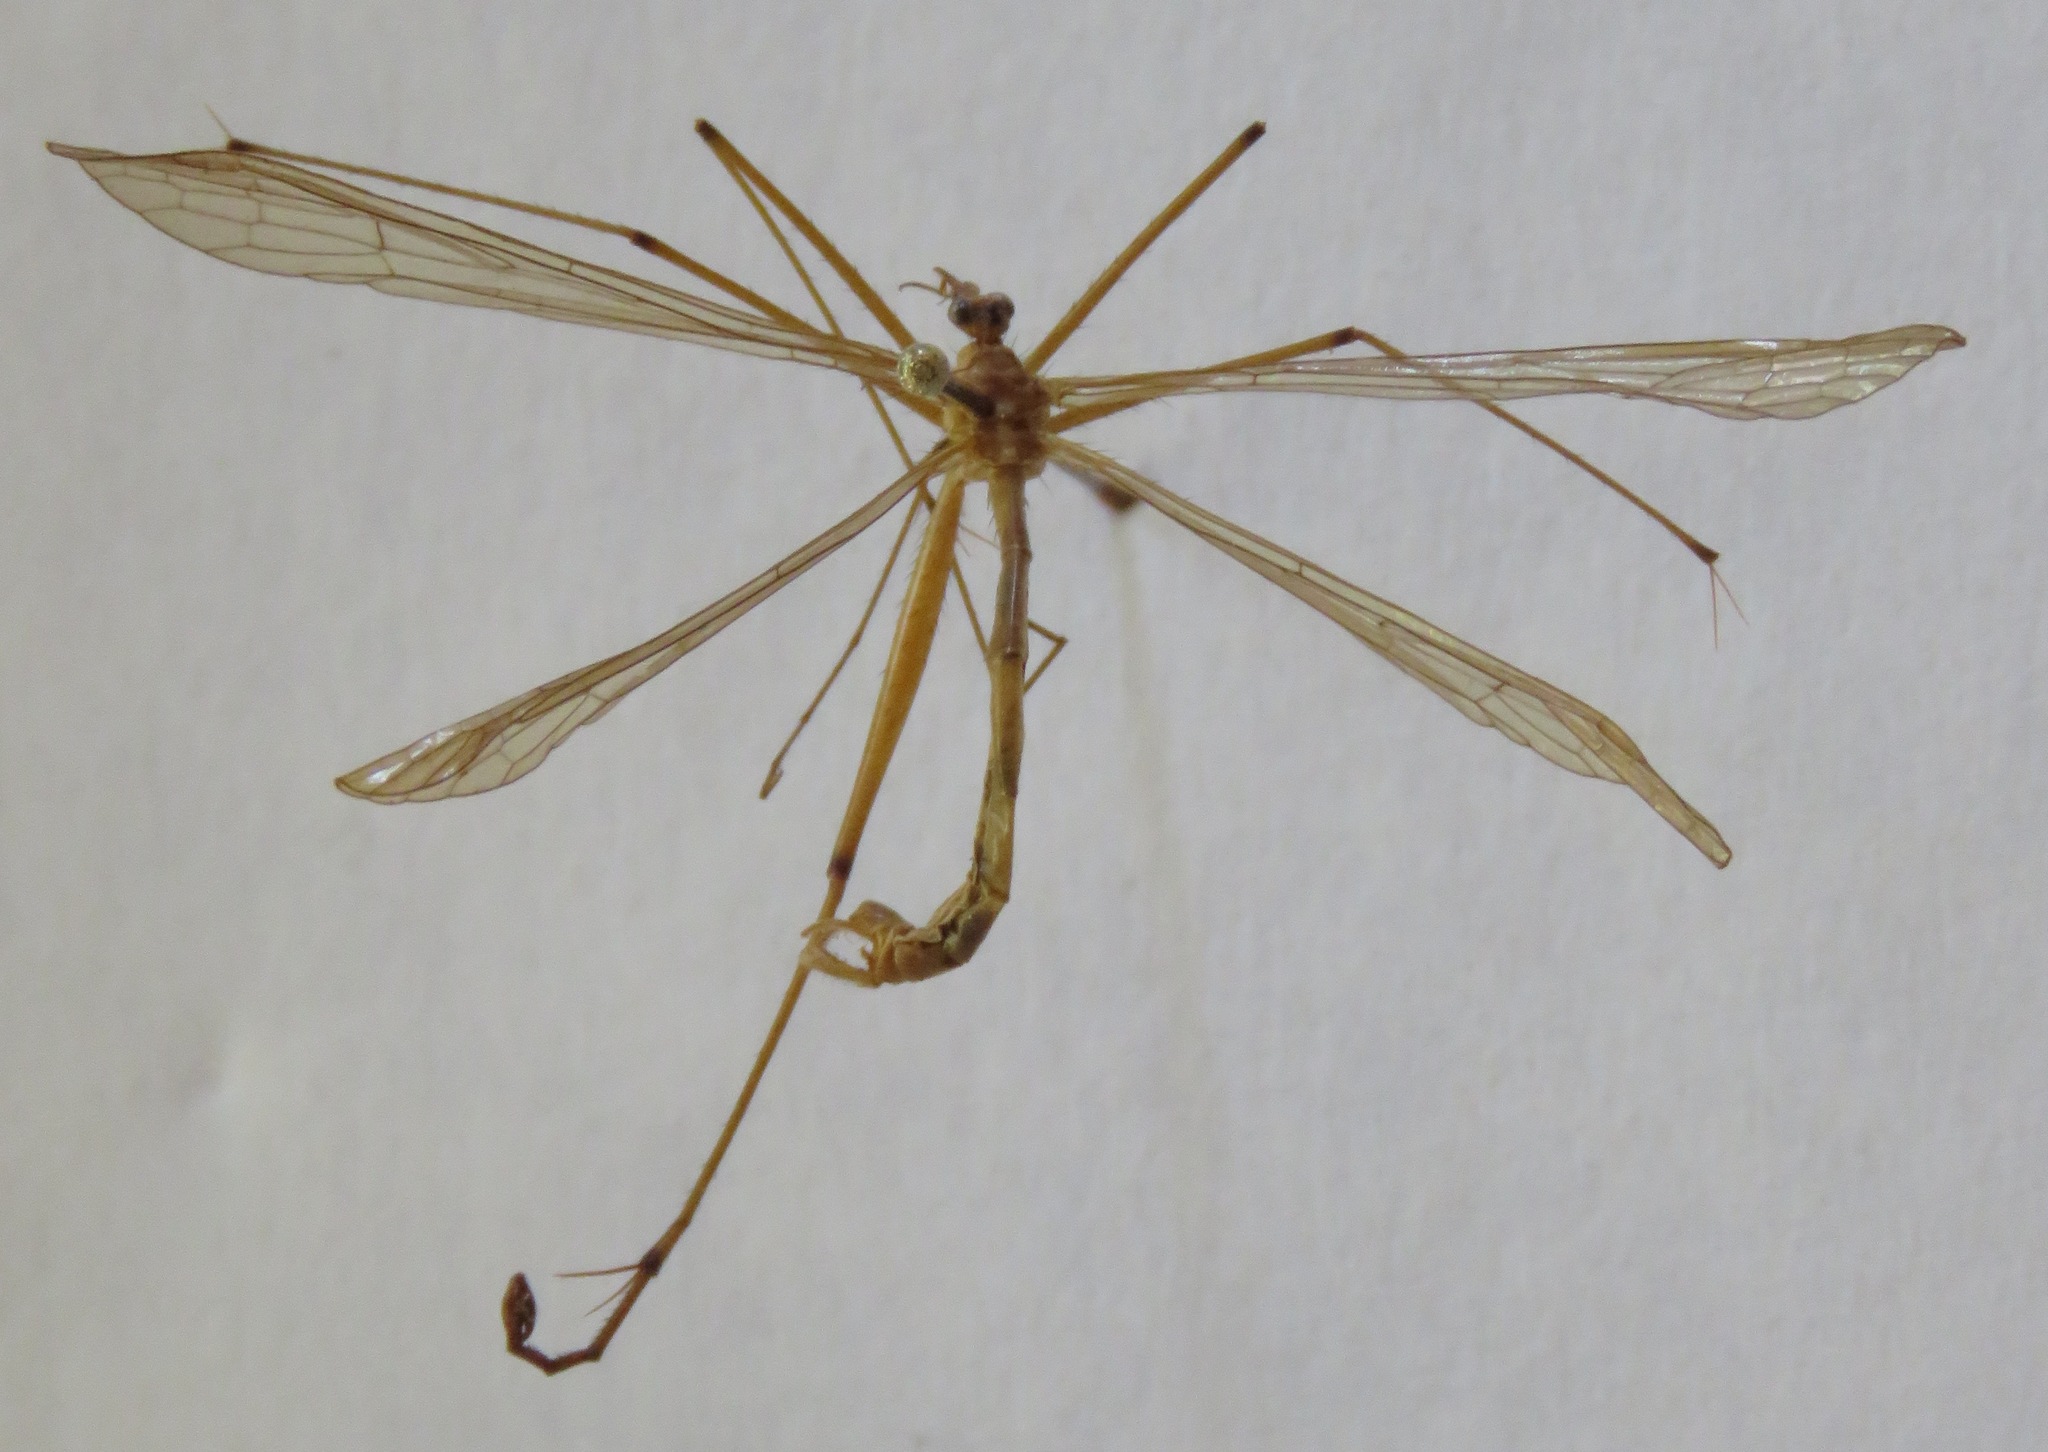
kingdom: Animalia
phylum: Arthropoda
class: Insecta
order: Mecoptera
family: Bittacidae
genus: Bittacus
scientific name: Bittacus spatulatus
